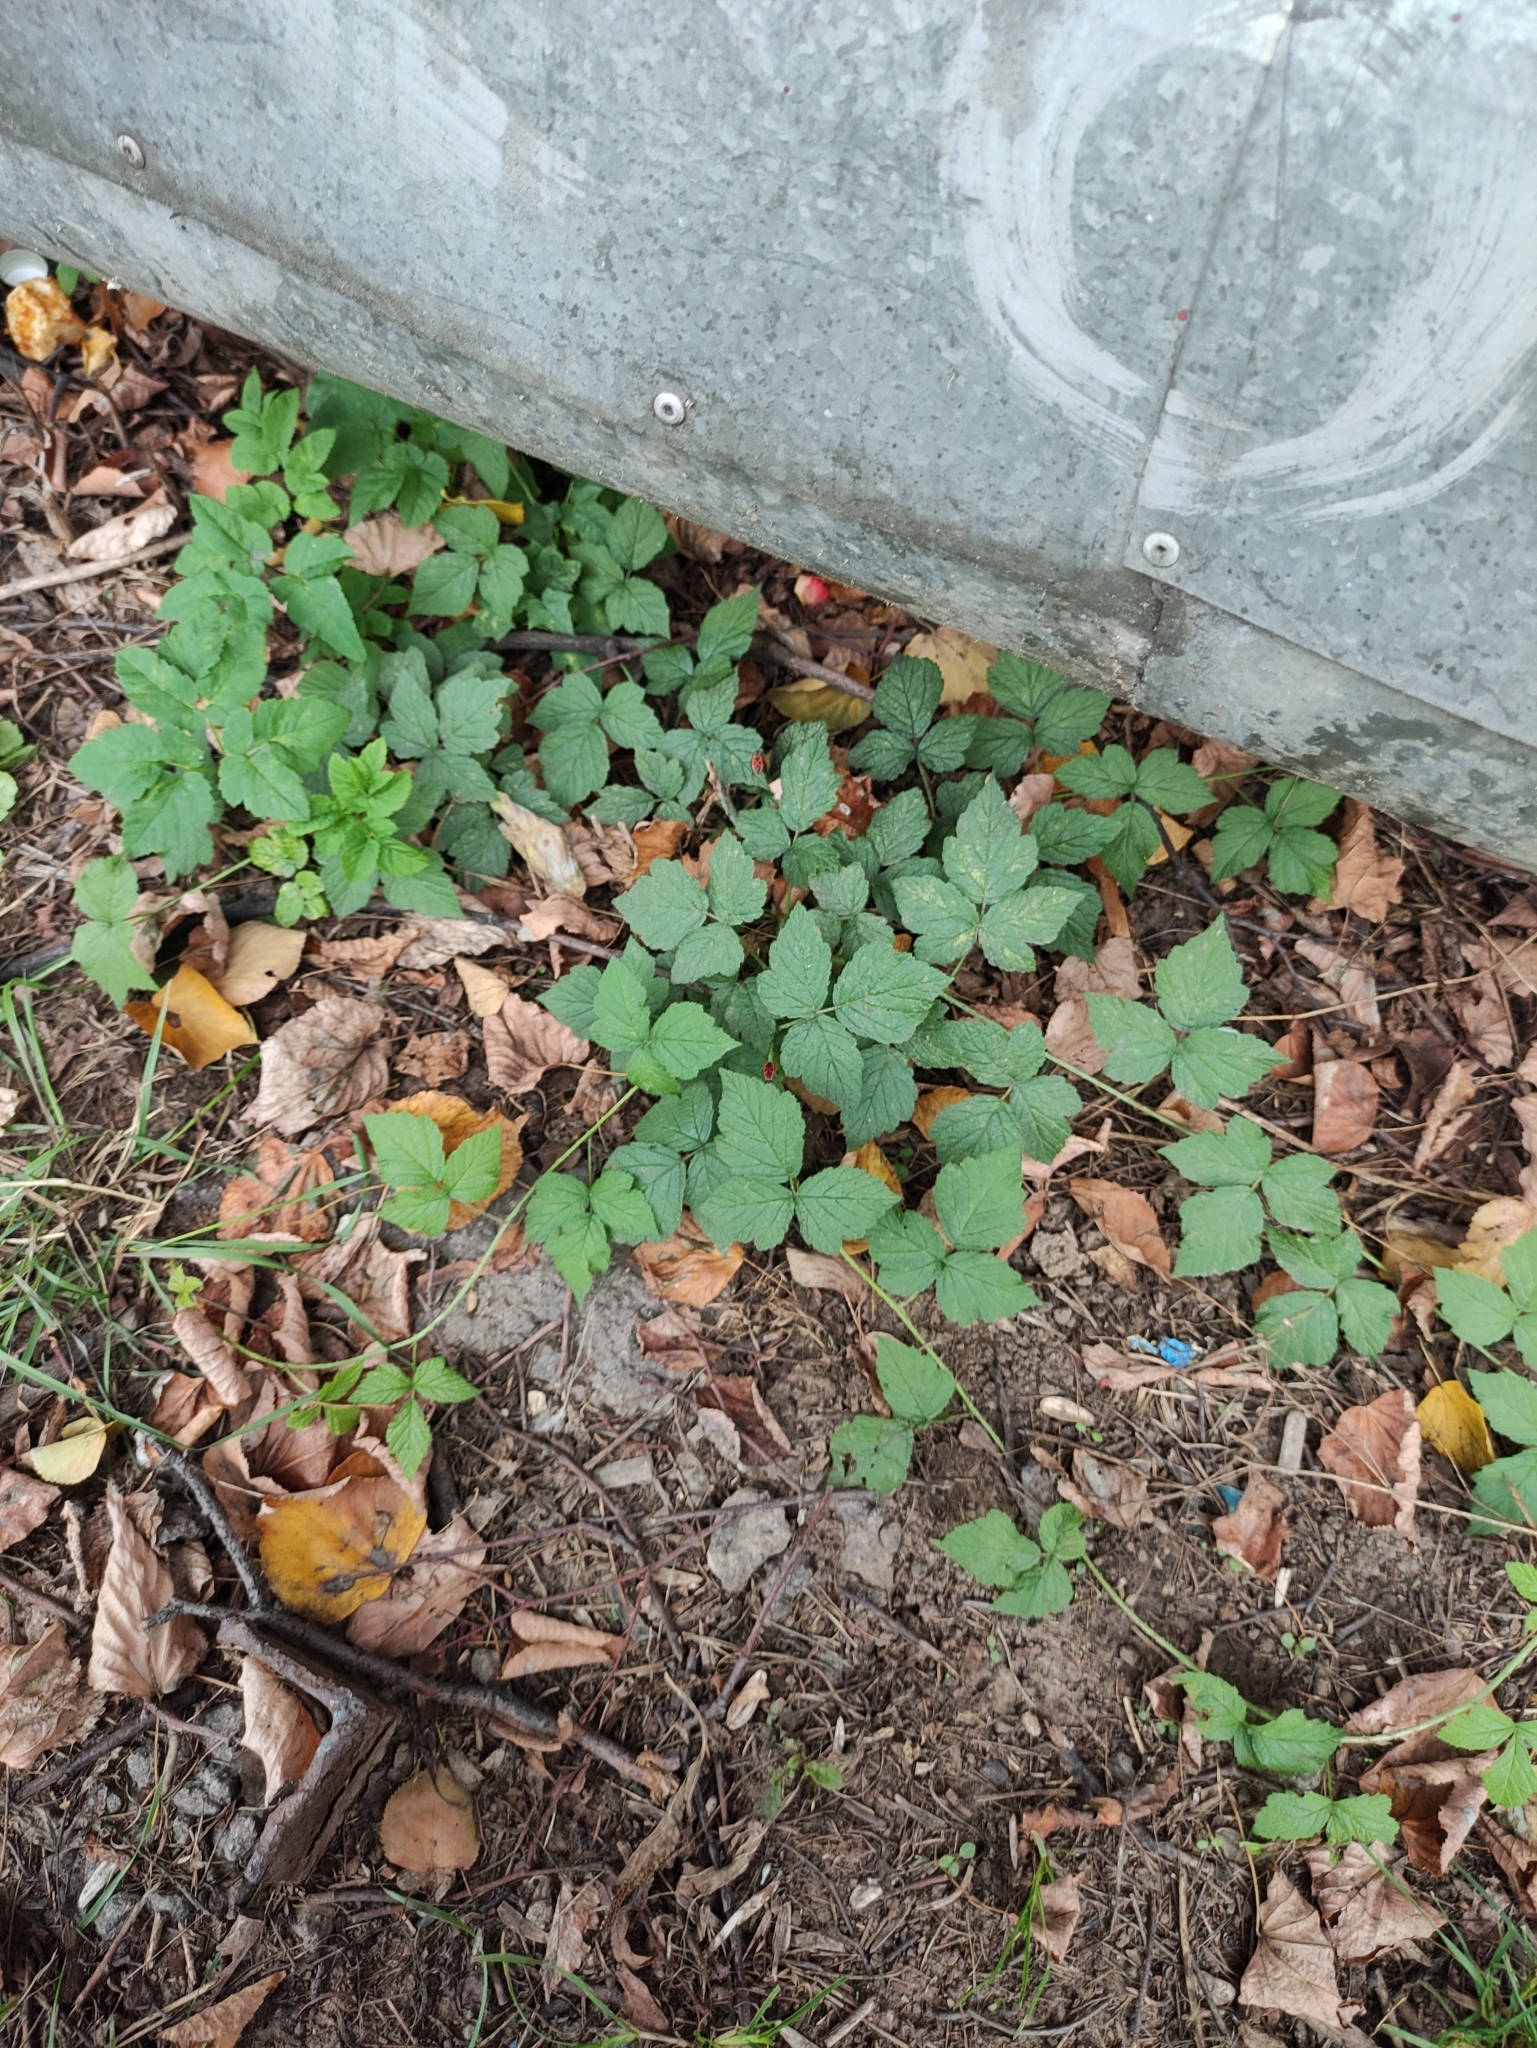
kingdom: Plantae
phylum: Tracheophyta
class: Magnoliopsida
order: Rosales
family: Rosaceae
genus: Rubus
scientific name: Rubus caesius
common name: Dewberry
